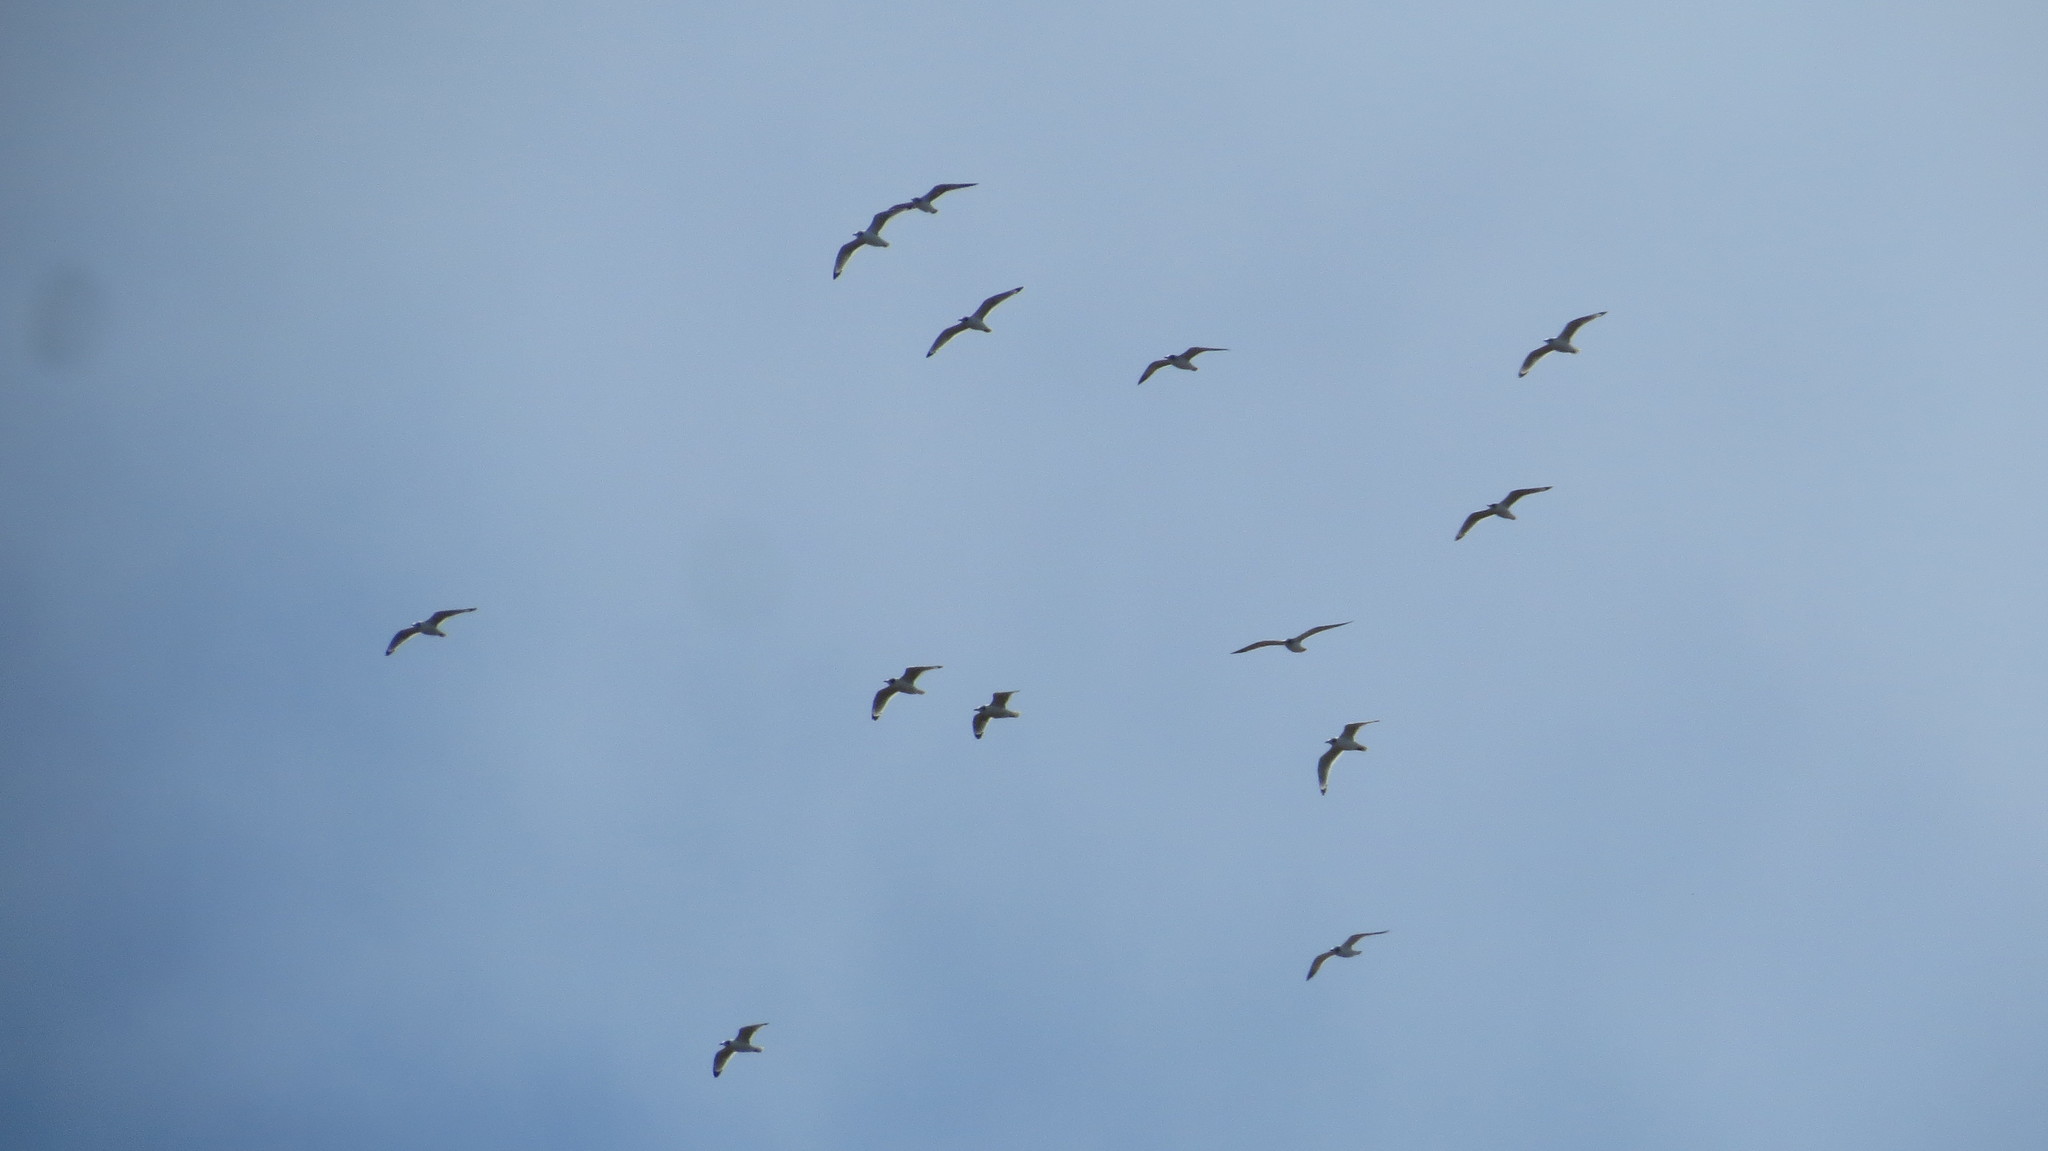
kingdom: Animalia
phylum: Chordata
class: Aves
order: Charadriiformes
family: Laridae
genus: Leucophaeus
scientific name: Leucophaeus atricilla
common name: Laughing gull
